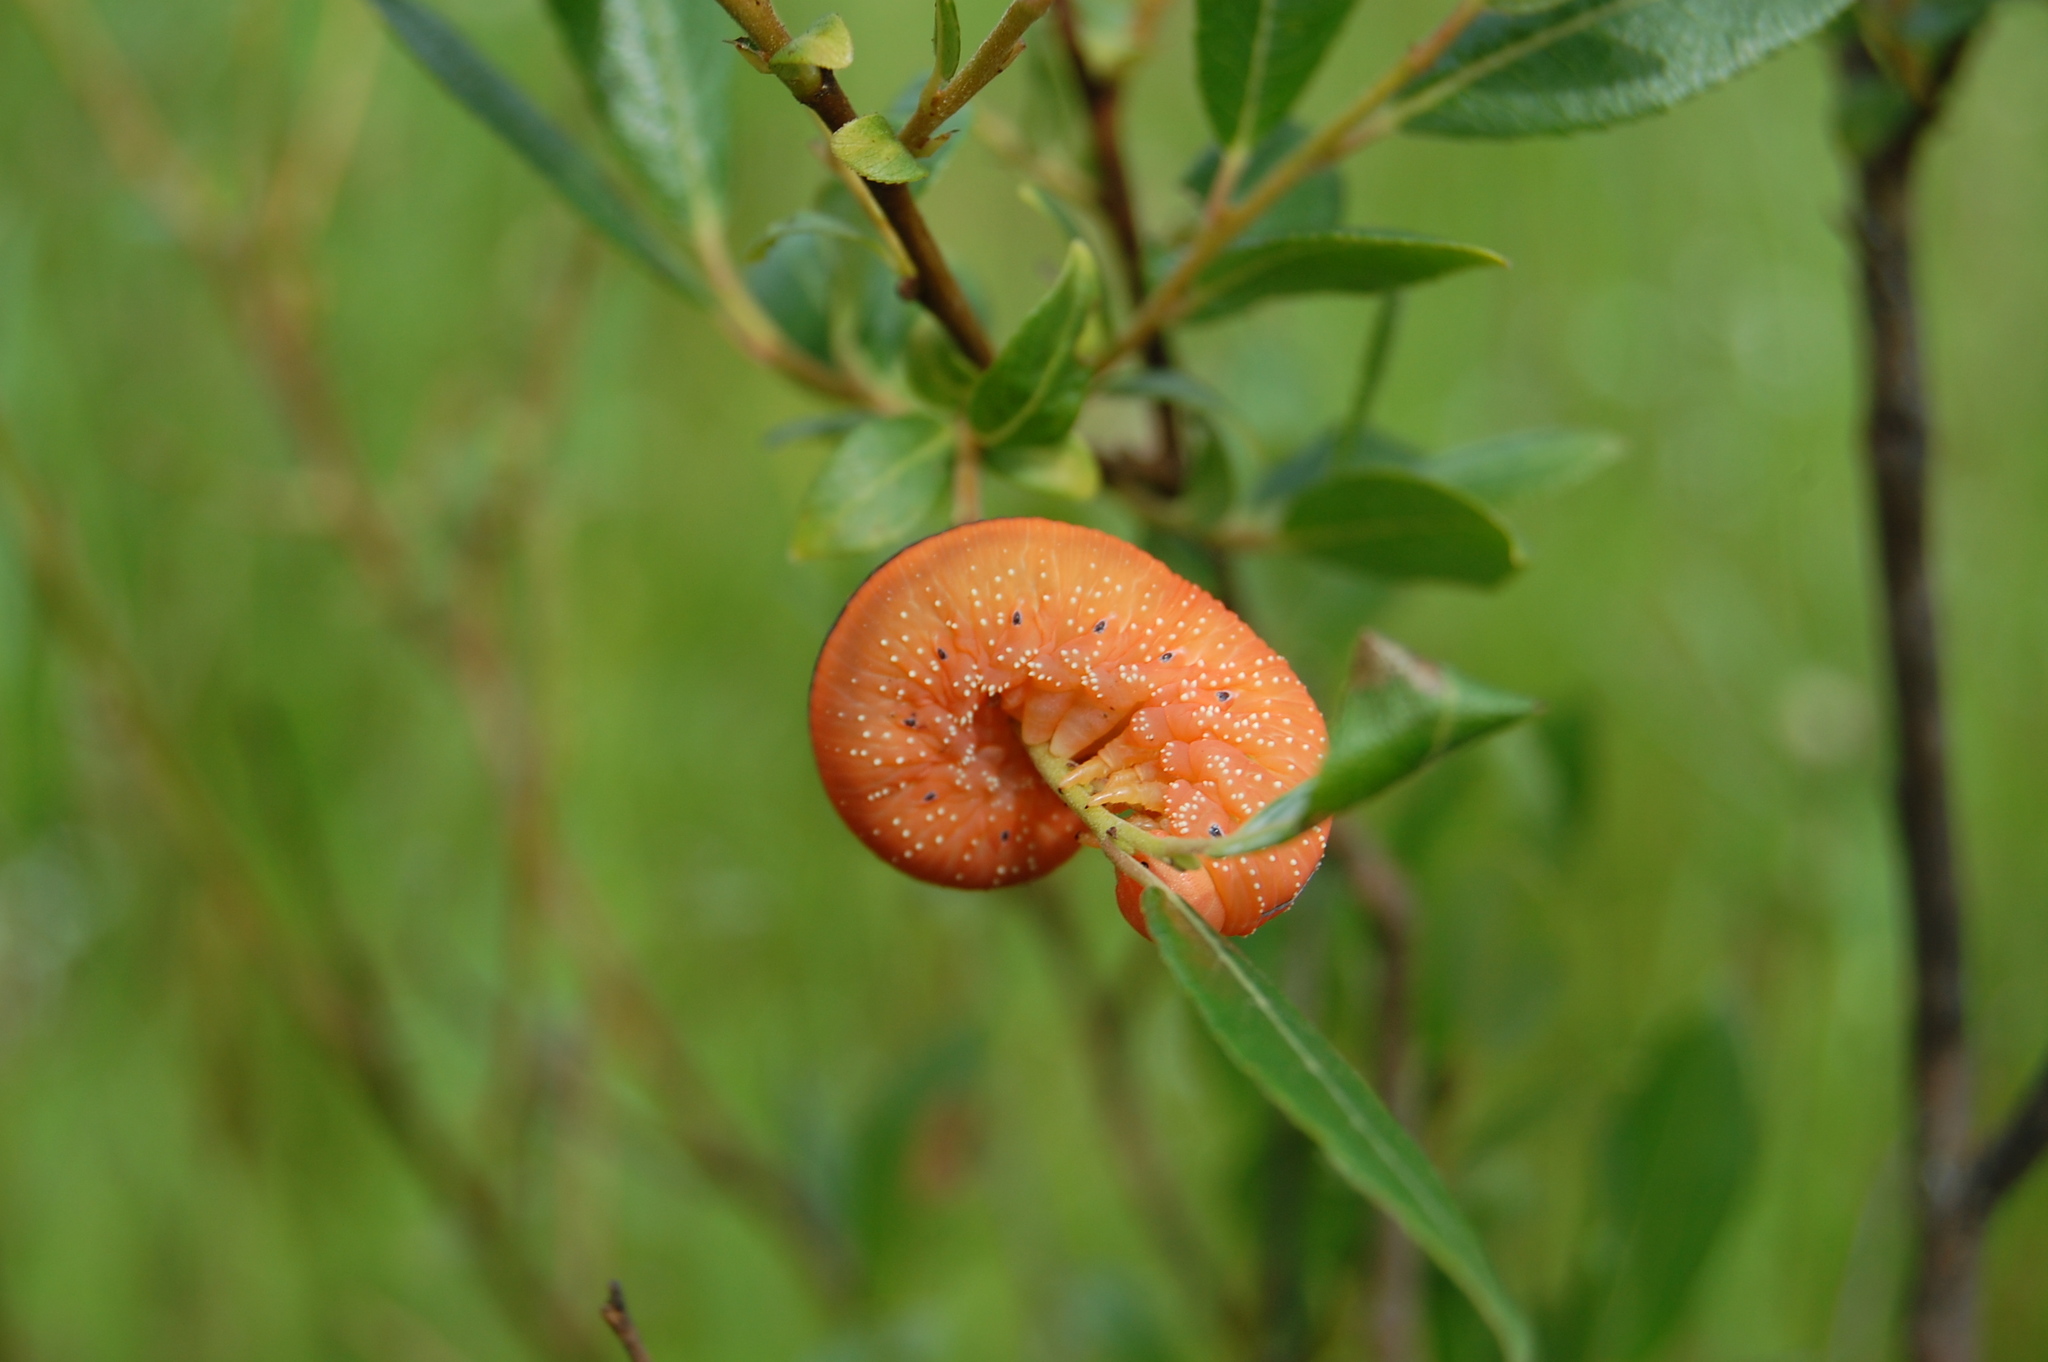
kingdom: Animalia
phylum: Arthropoda
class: Insecta
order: Hymenoptera
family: Cimbicidae
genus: Cimbex
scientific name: Cimbex luteus
